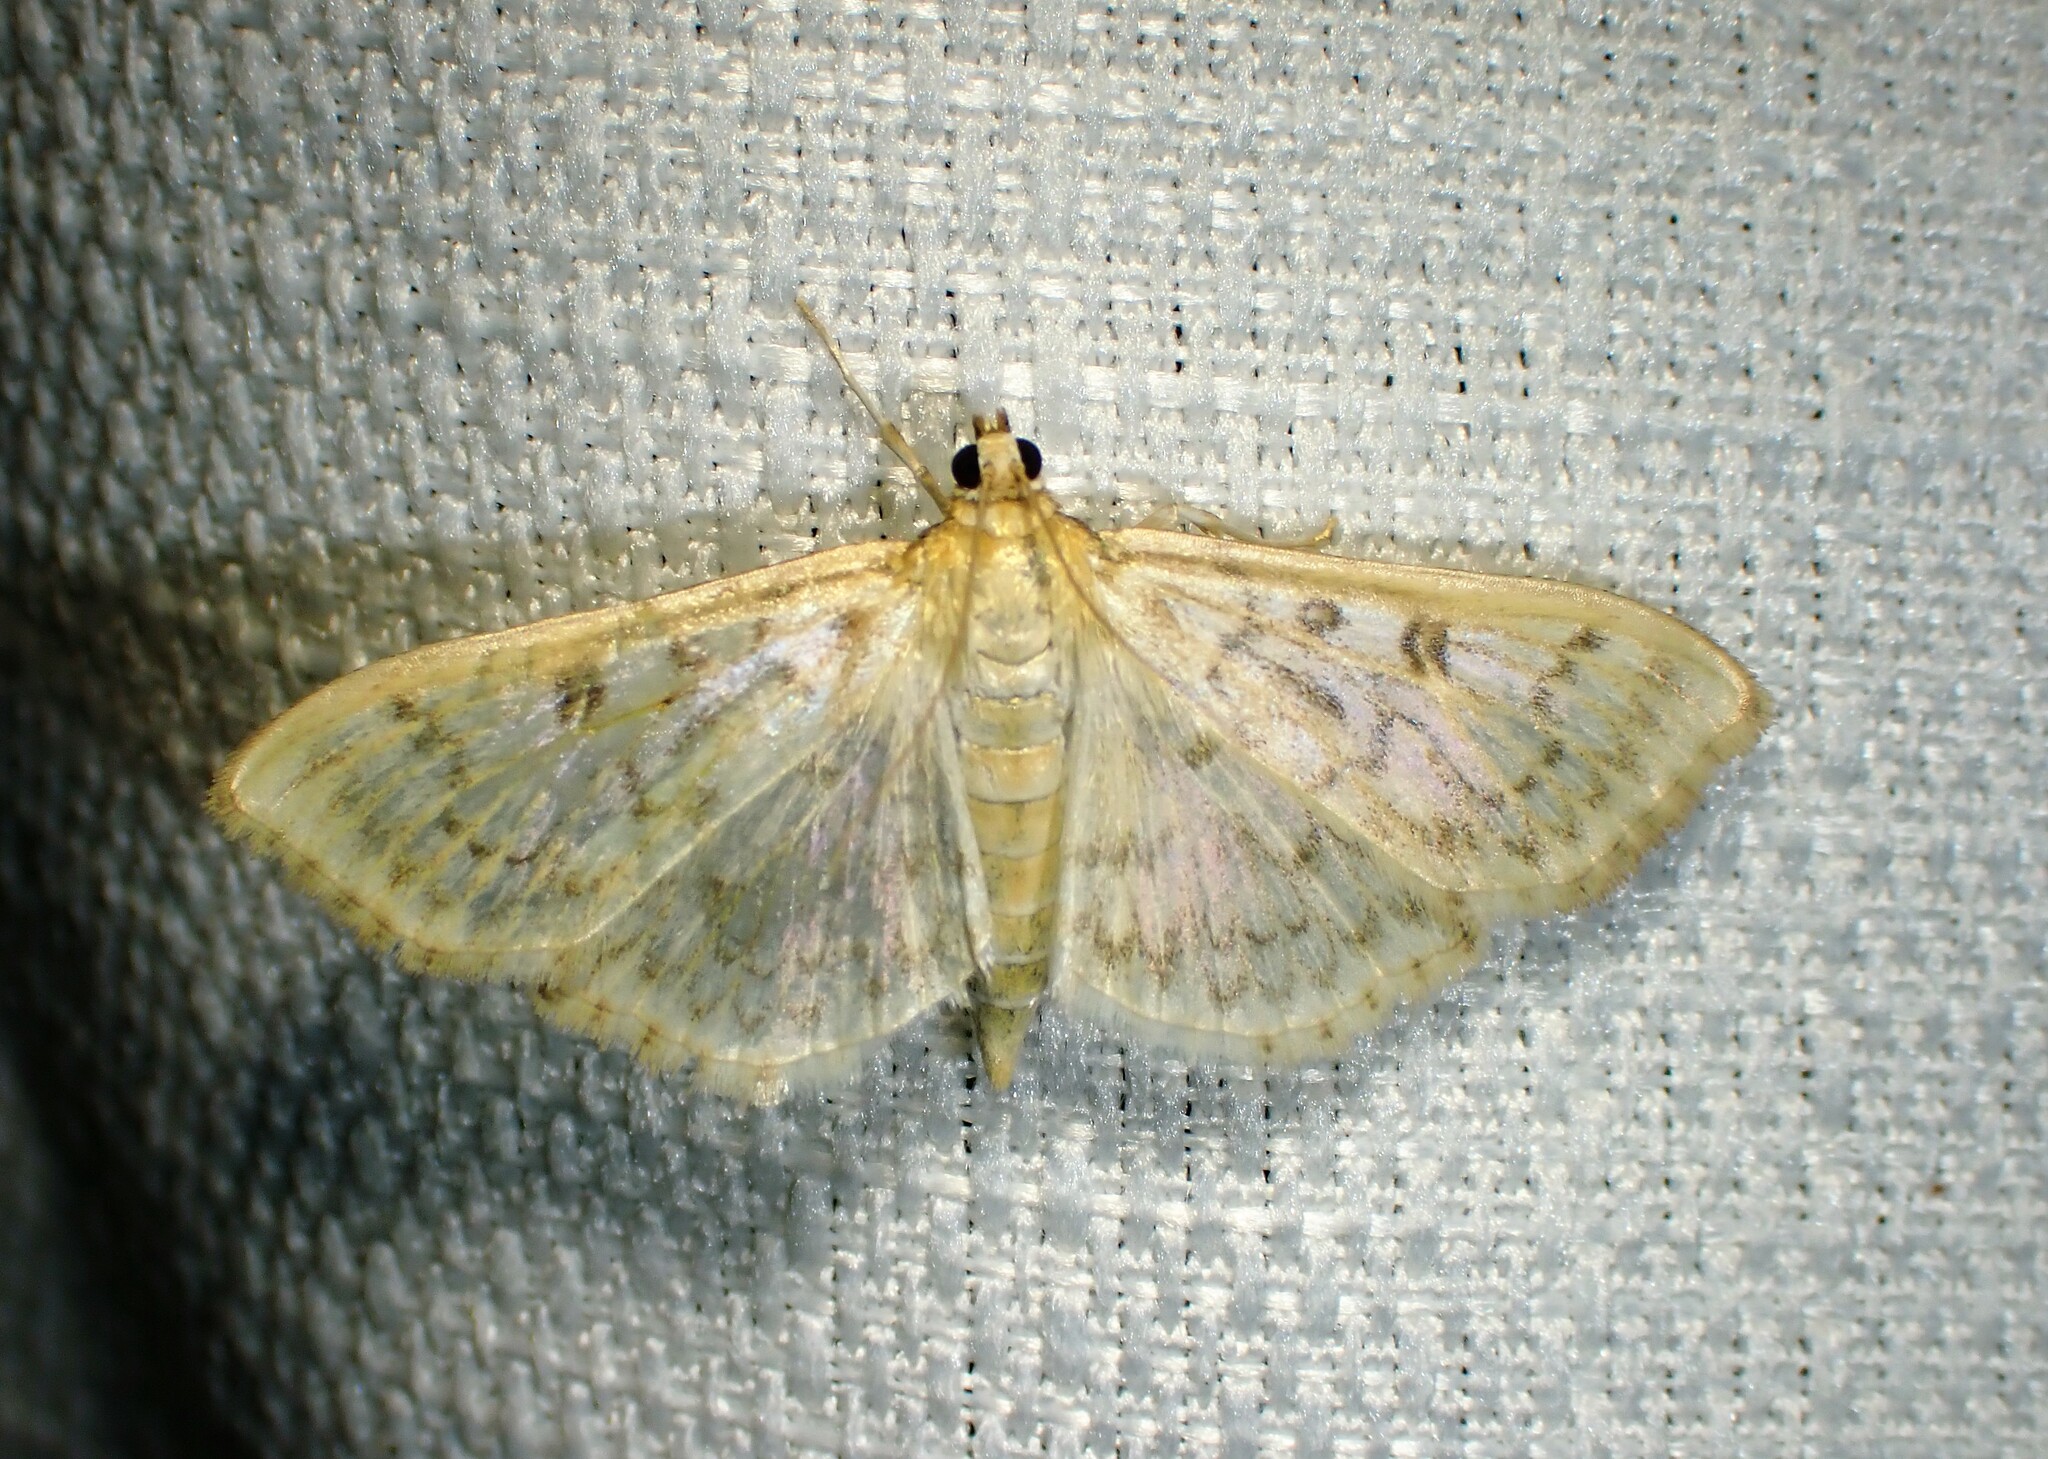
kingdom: Animalia
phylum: Arthropoda
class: Insecta
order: Lepidoptera
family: Crambidae
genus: Herpetogramma
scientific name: Herpetogramma aquilonalis
